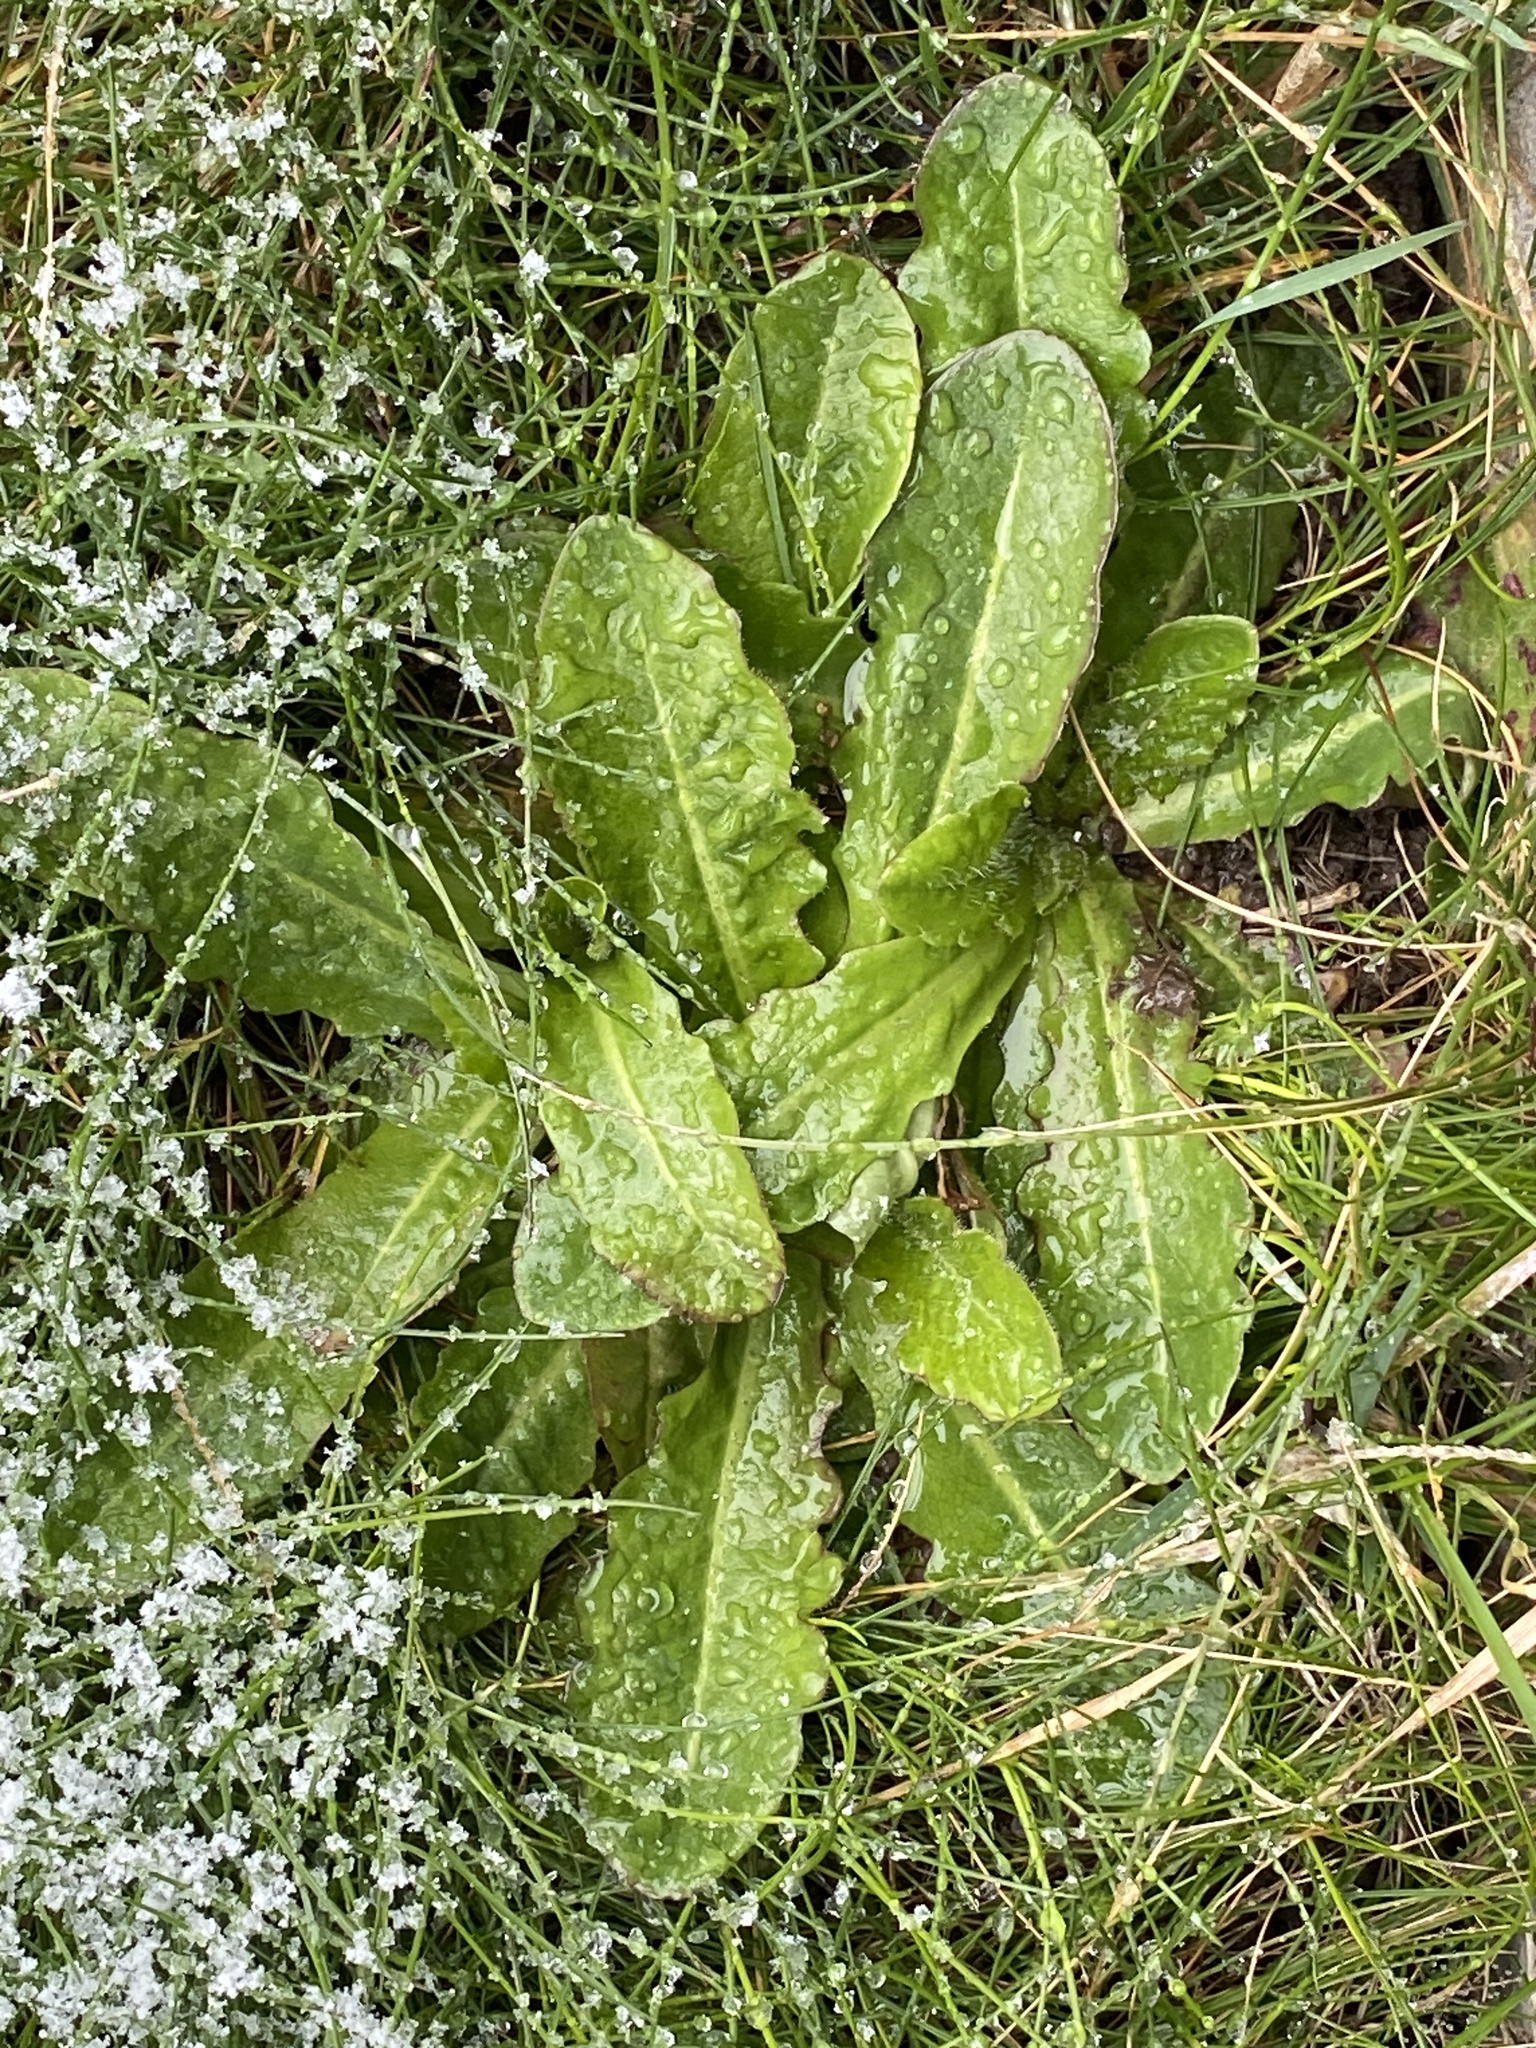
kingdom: Plantae
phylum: Tracheophyta
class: Magnoliopsida
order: Asterales
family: Asteraceae
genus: Hypochaeris
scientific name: Hypochaeris radicata
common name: Flatweed
